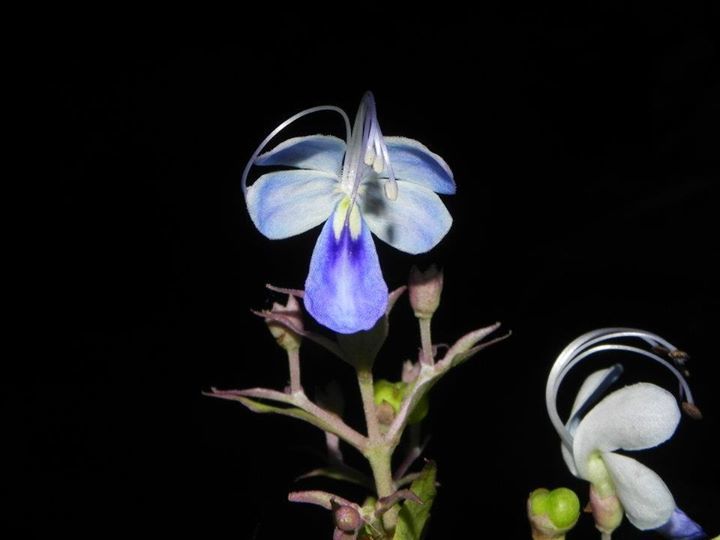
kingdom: Plantae
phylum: Tracheophyta
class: Magnoliopsida
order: Lamiales
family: Lamiaceae
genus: Rotheca
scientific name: Rotheca serrata
